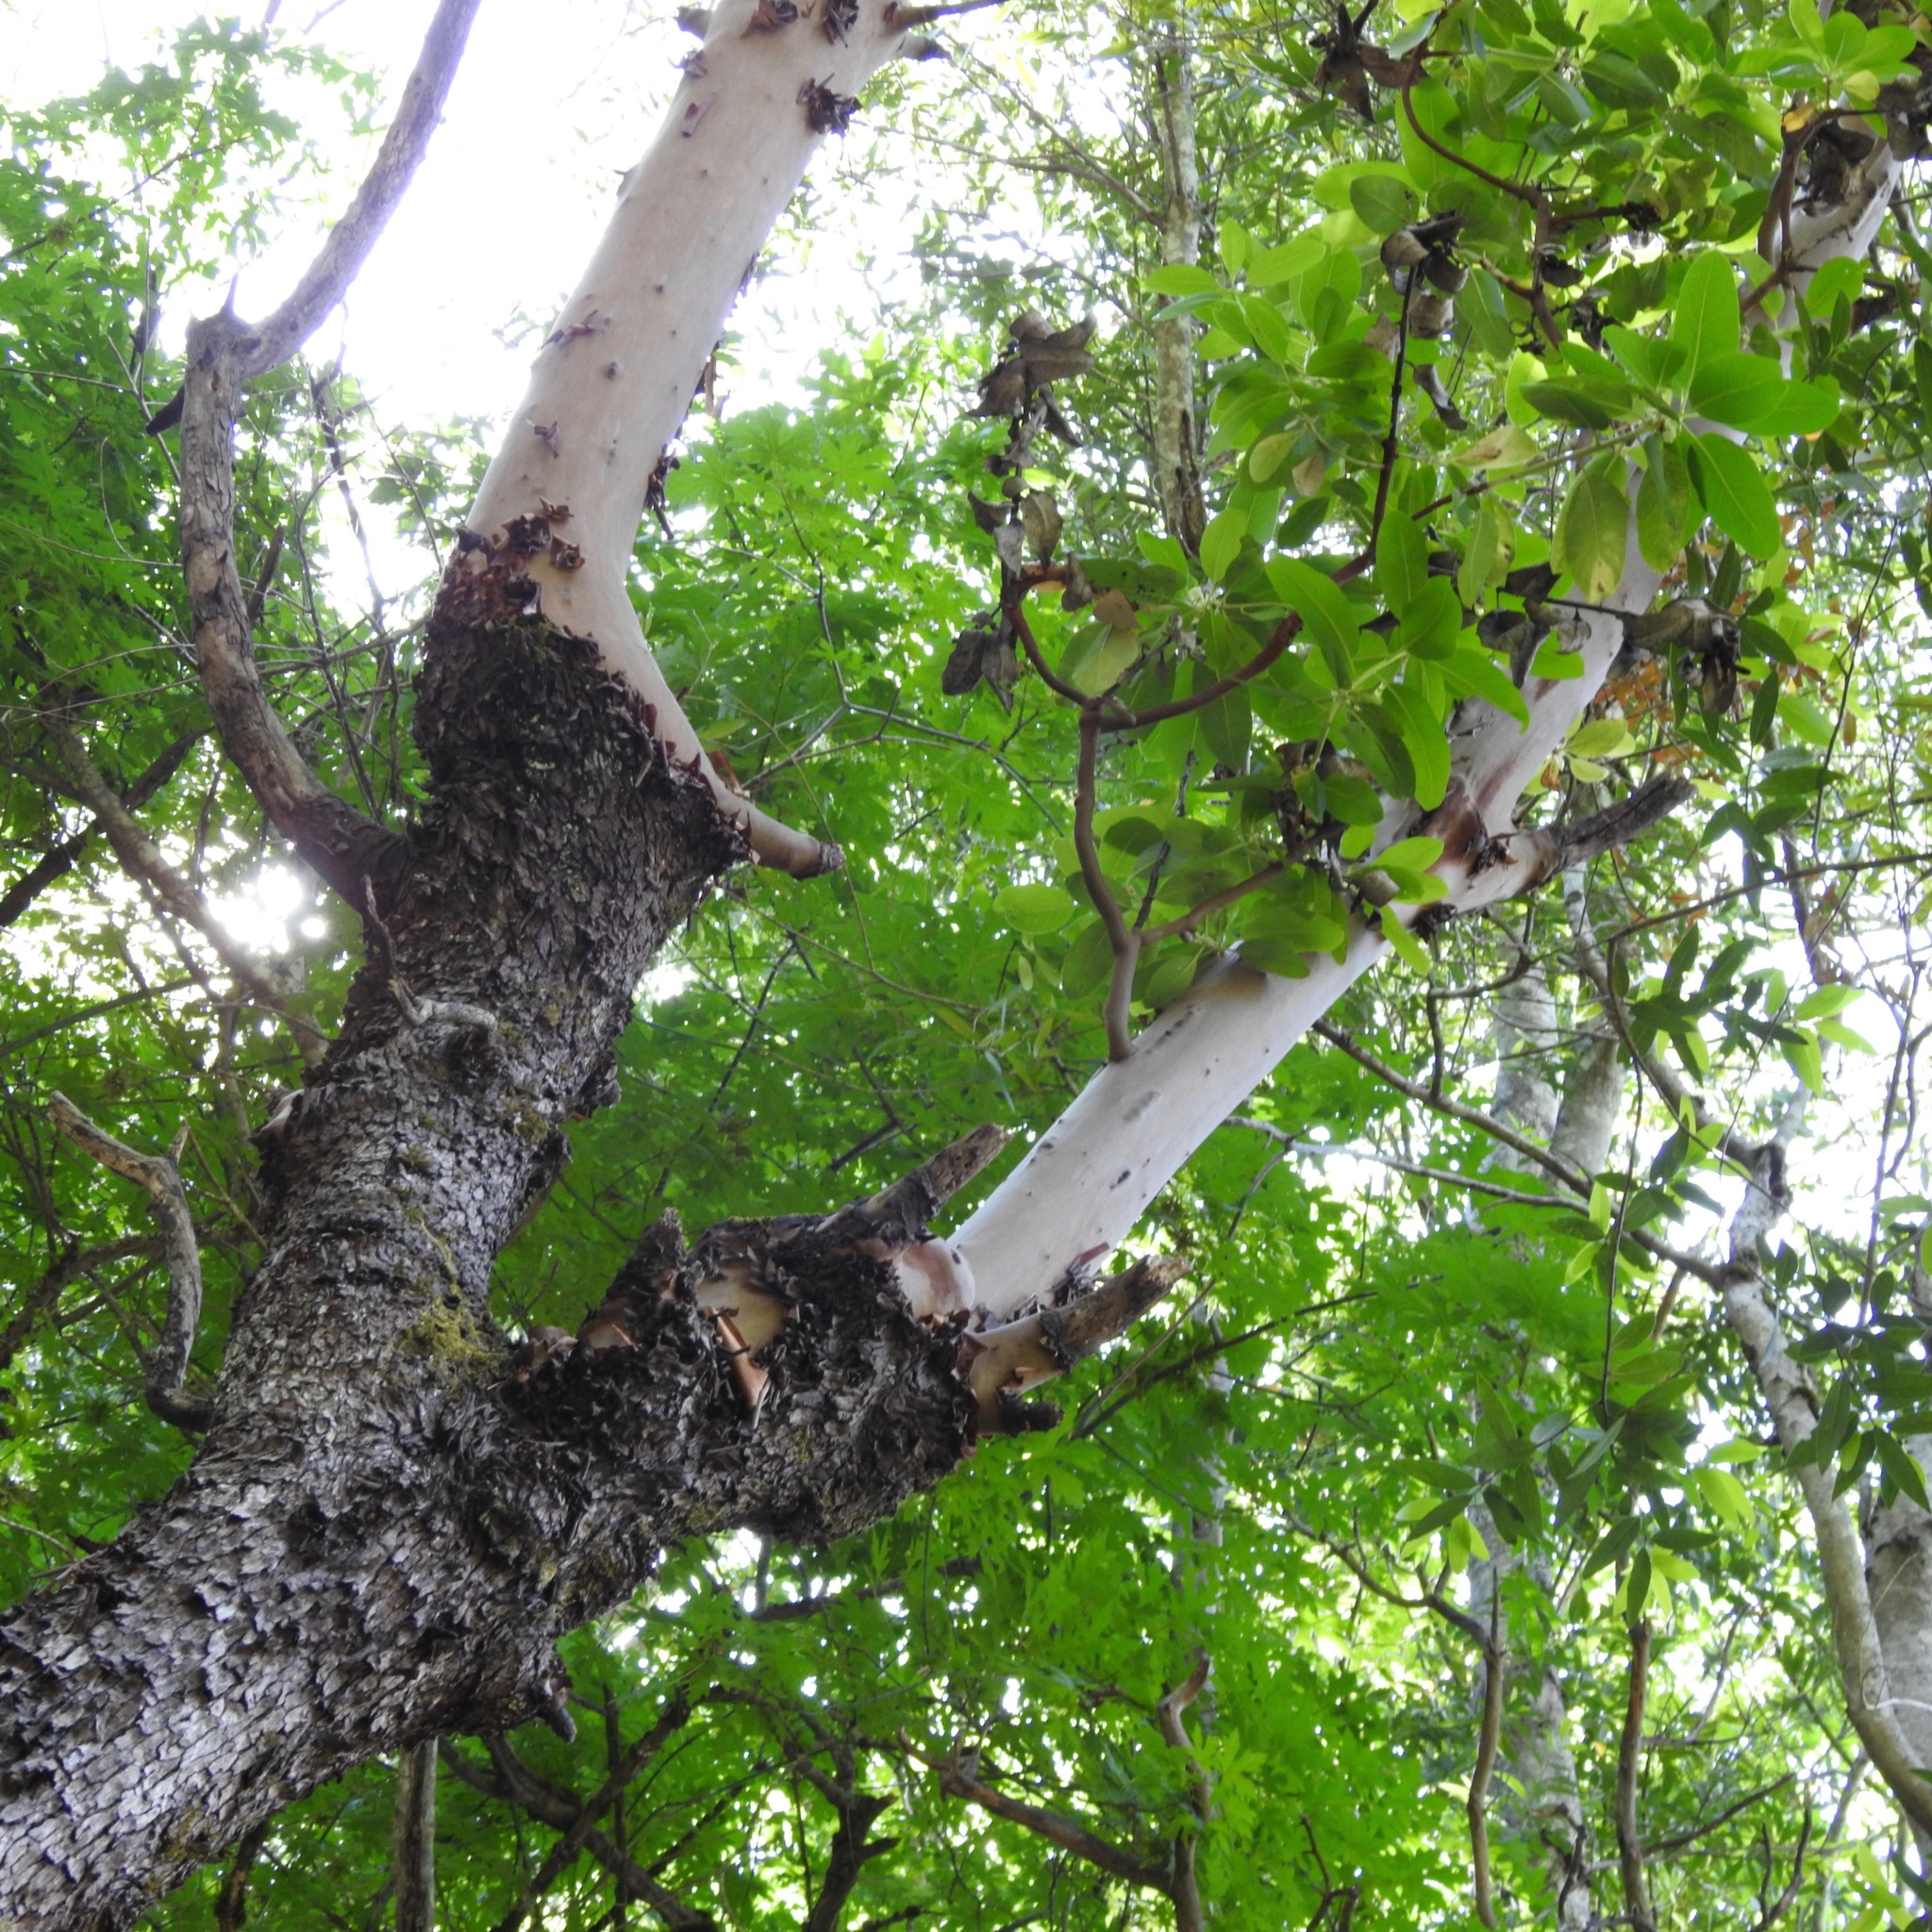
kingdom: Plantae
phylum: Tracheophyta
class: Magnoliopsida
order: Ericales
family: Ericaceae
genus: Arbutus
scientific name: Arbutus menziesii
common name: Pacific madrone
